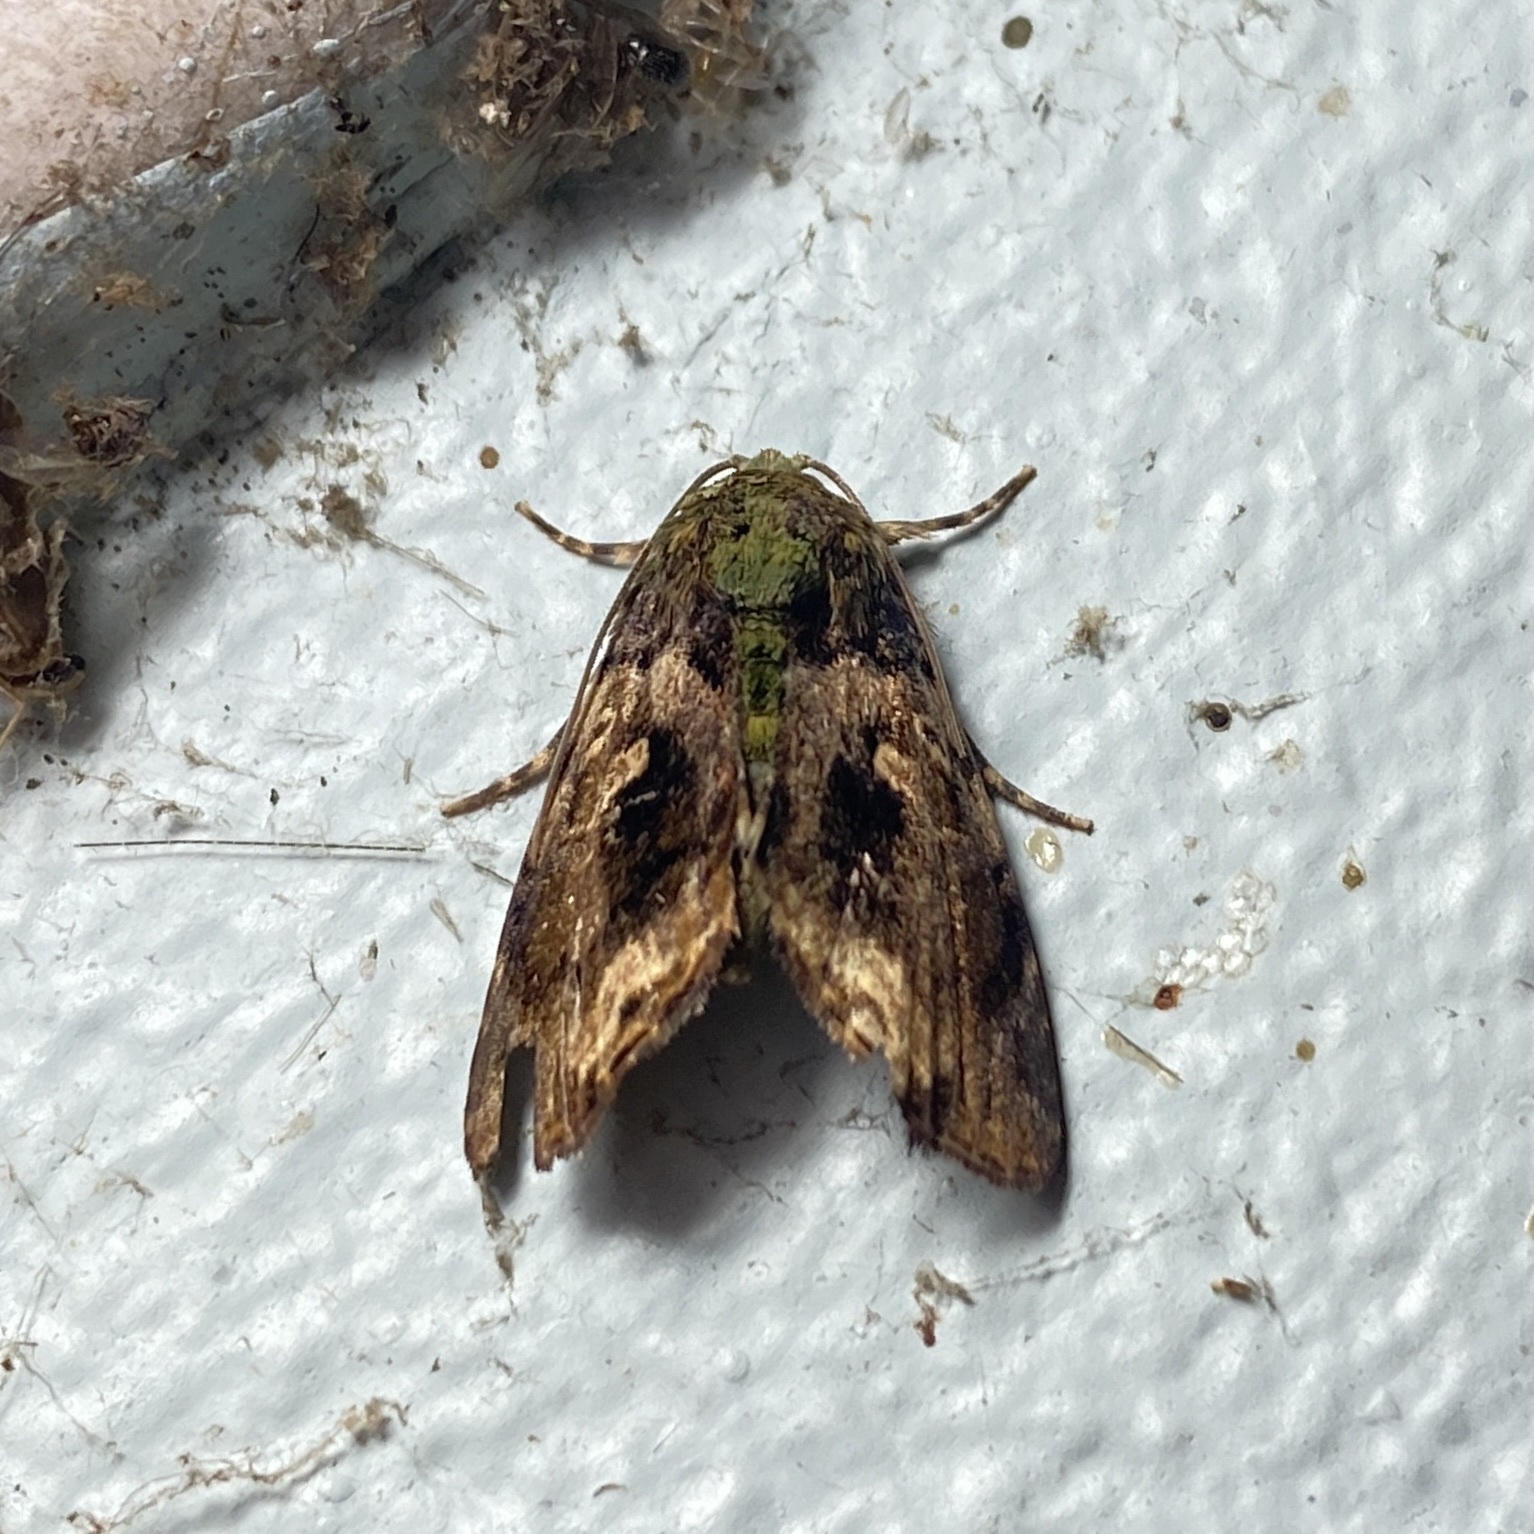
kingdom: Animalia
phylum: Arthropoda
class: Insecta
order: Lepidoptera
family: Noctuidae
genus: Angitia
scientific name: Angitia melamera
